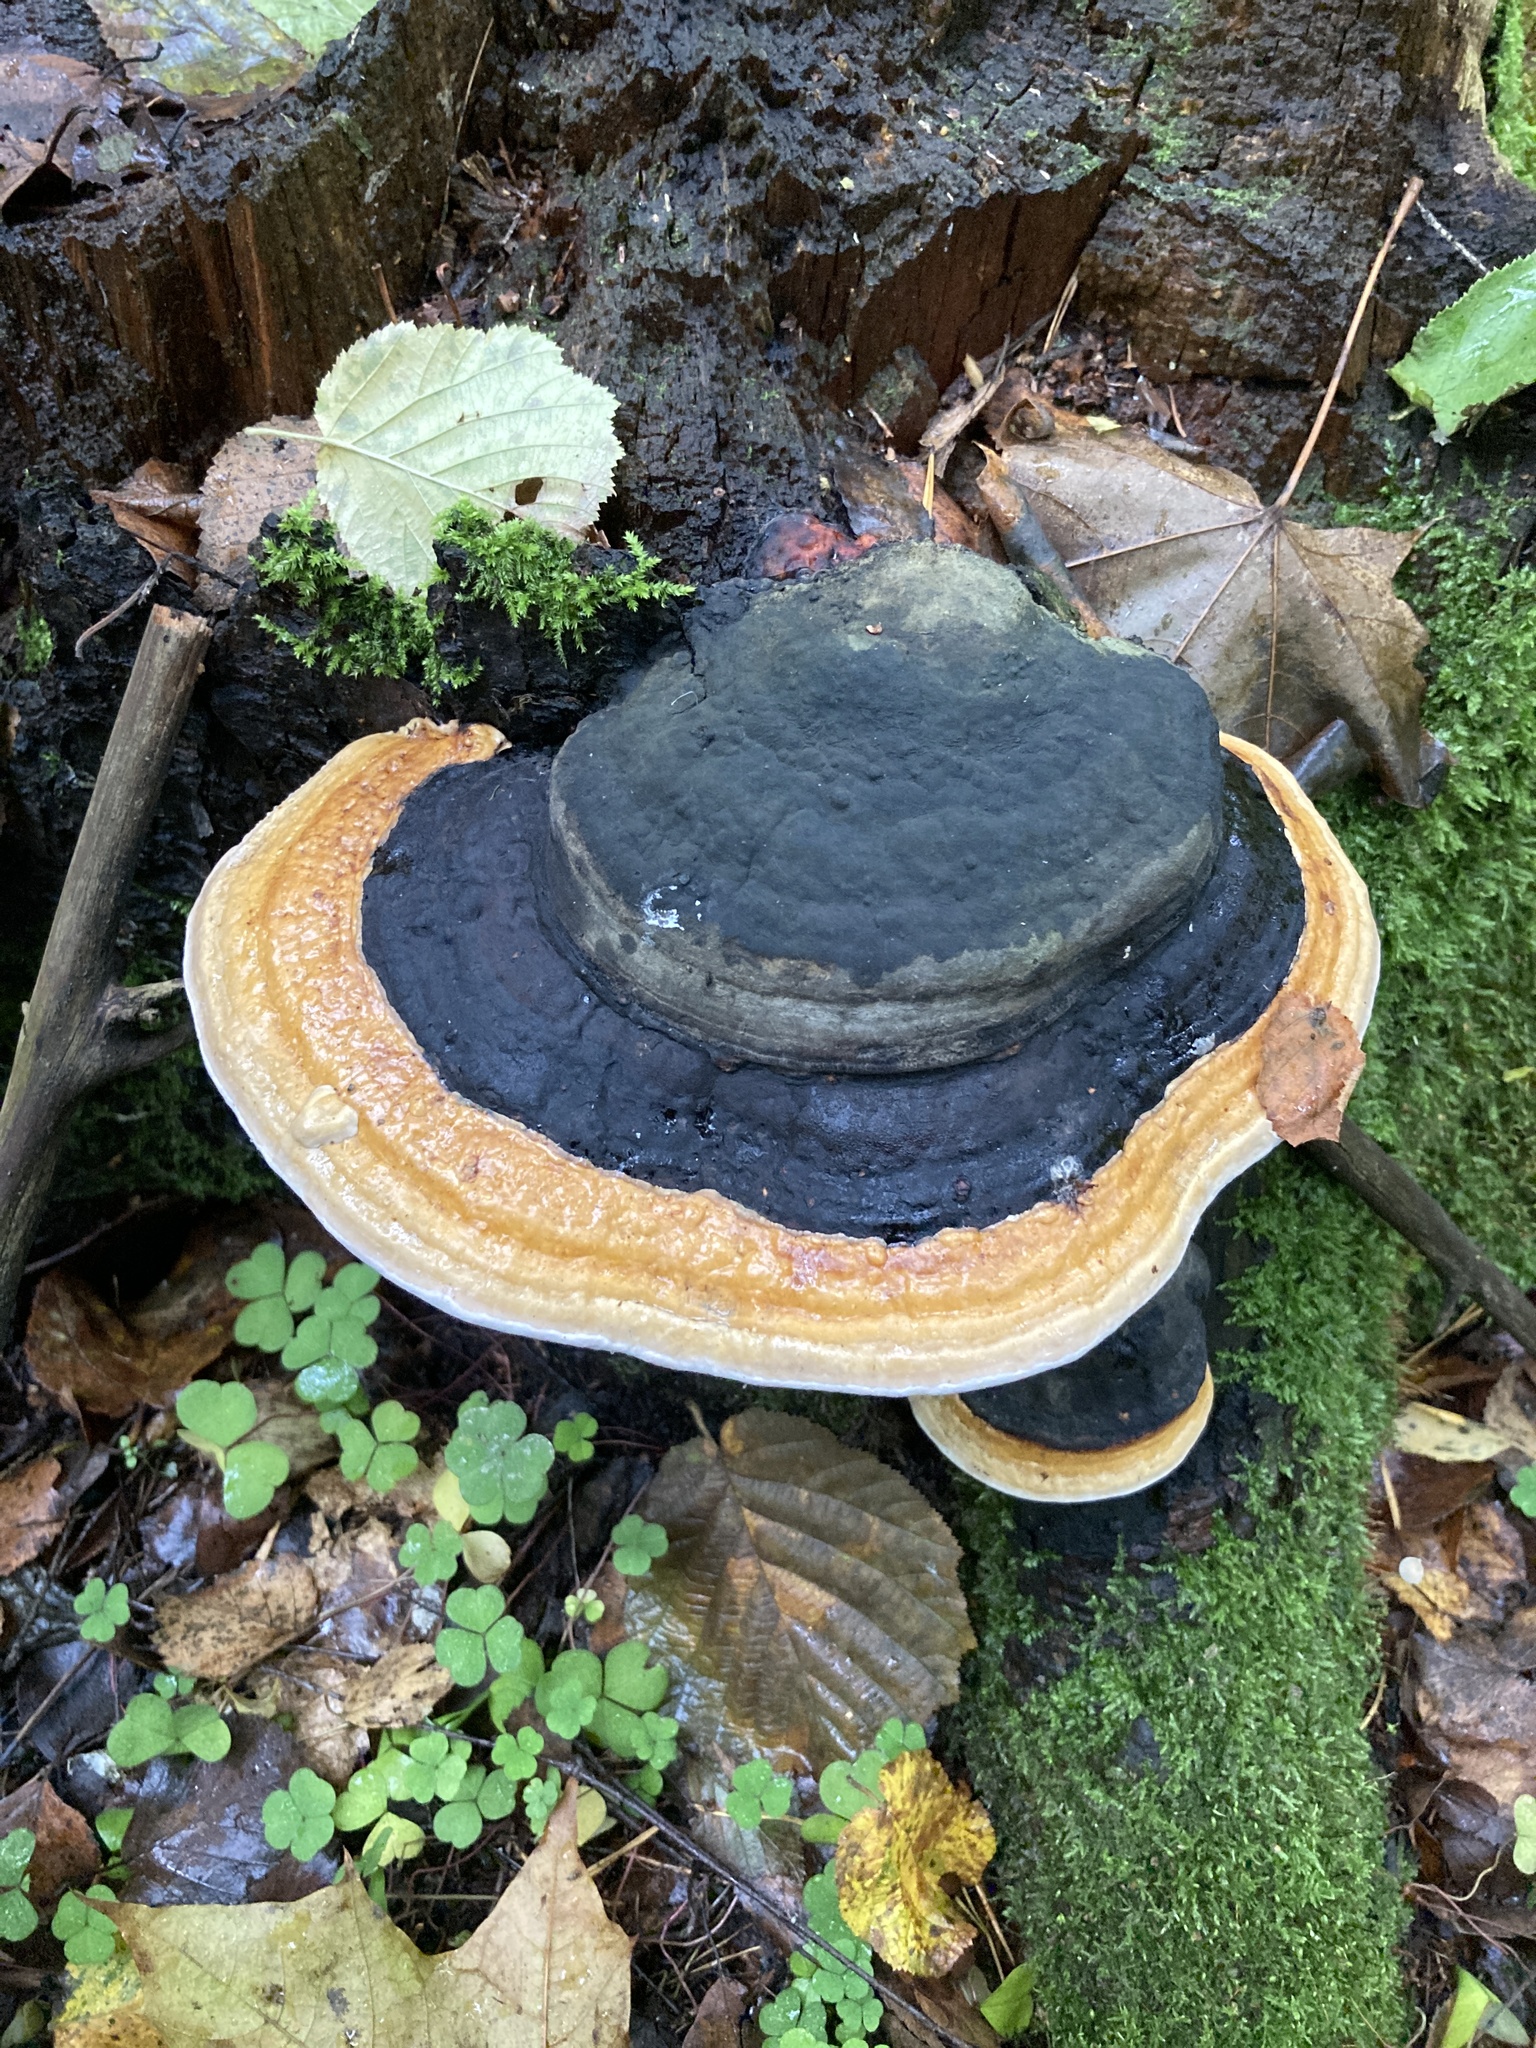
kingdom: Fungi
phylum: Basidiomycota
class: Agaricomycetes
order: Polyporales
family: Fomitopsidaceae
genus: Fomitopsis
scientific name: Fomitopsis pinicola
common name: Red-belted bracket
